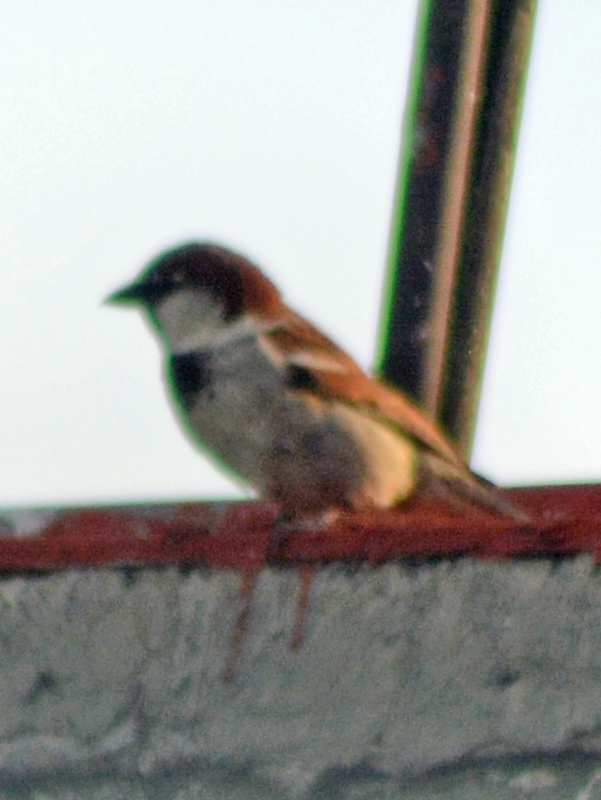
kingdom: Animalia
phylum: Chordata
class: Aves
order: Passeriformes
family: Passeridae
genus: Passer
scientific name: Passer domesticus
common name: House sparrow
